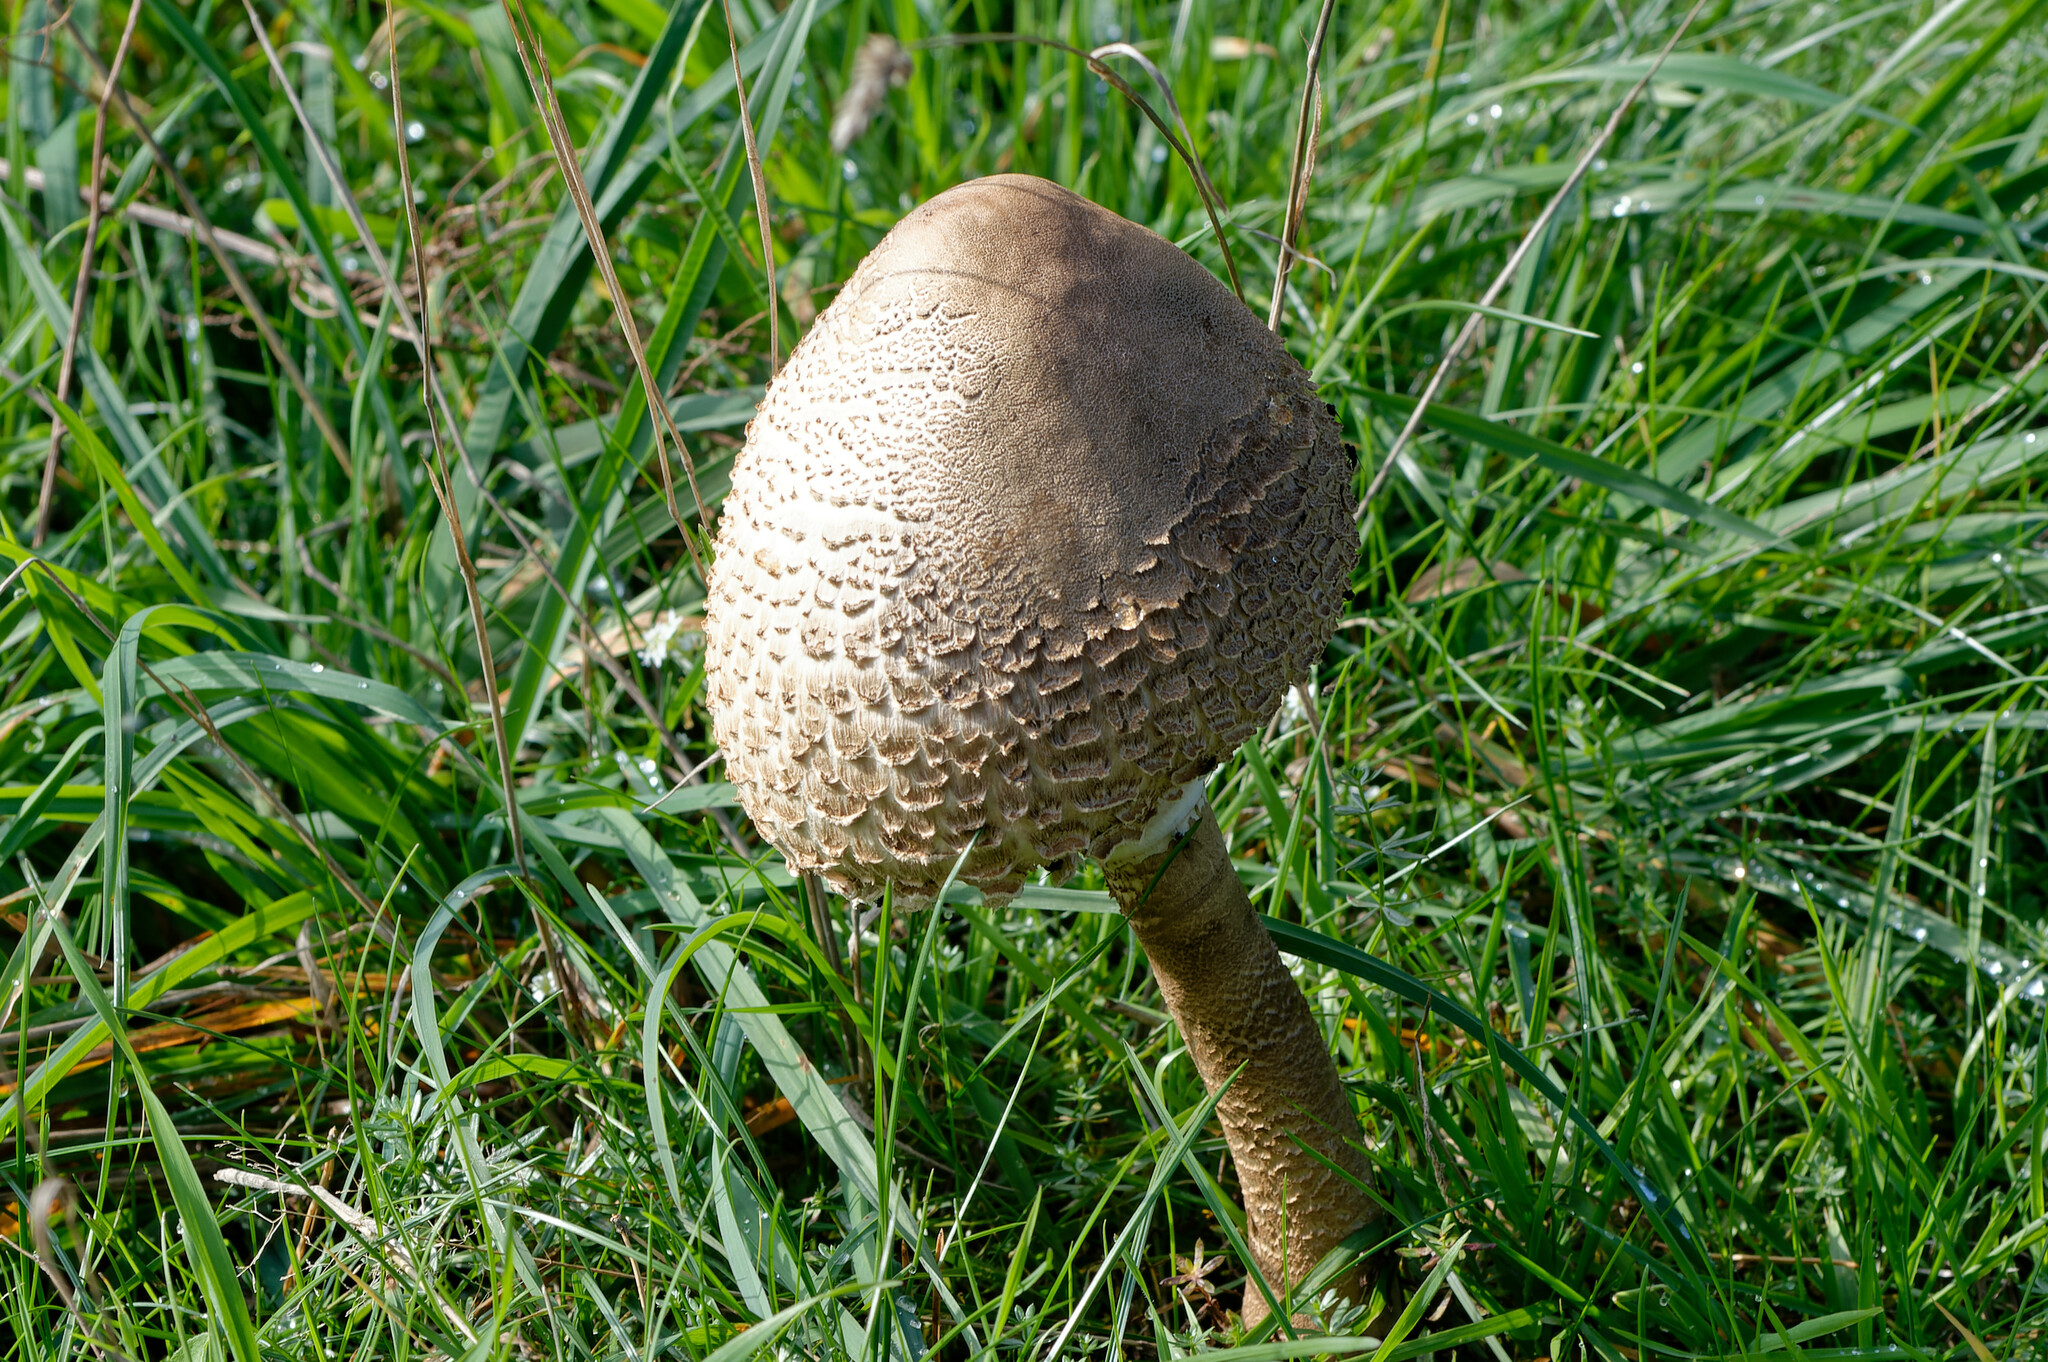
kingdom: Fungi
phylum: Basidiomycota
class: Agaricomycetes
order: Agaricales
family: Agaricaceae
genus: Macrolepiota
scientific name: Macrolepiota procera
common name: Parasol
